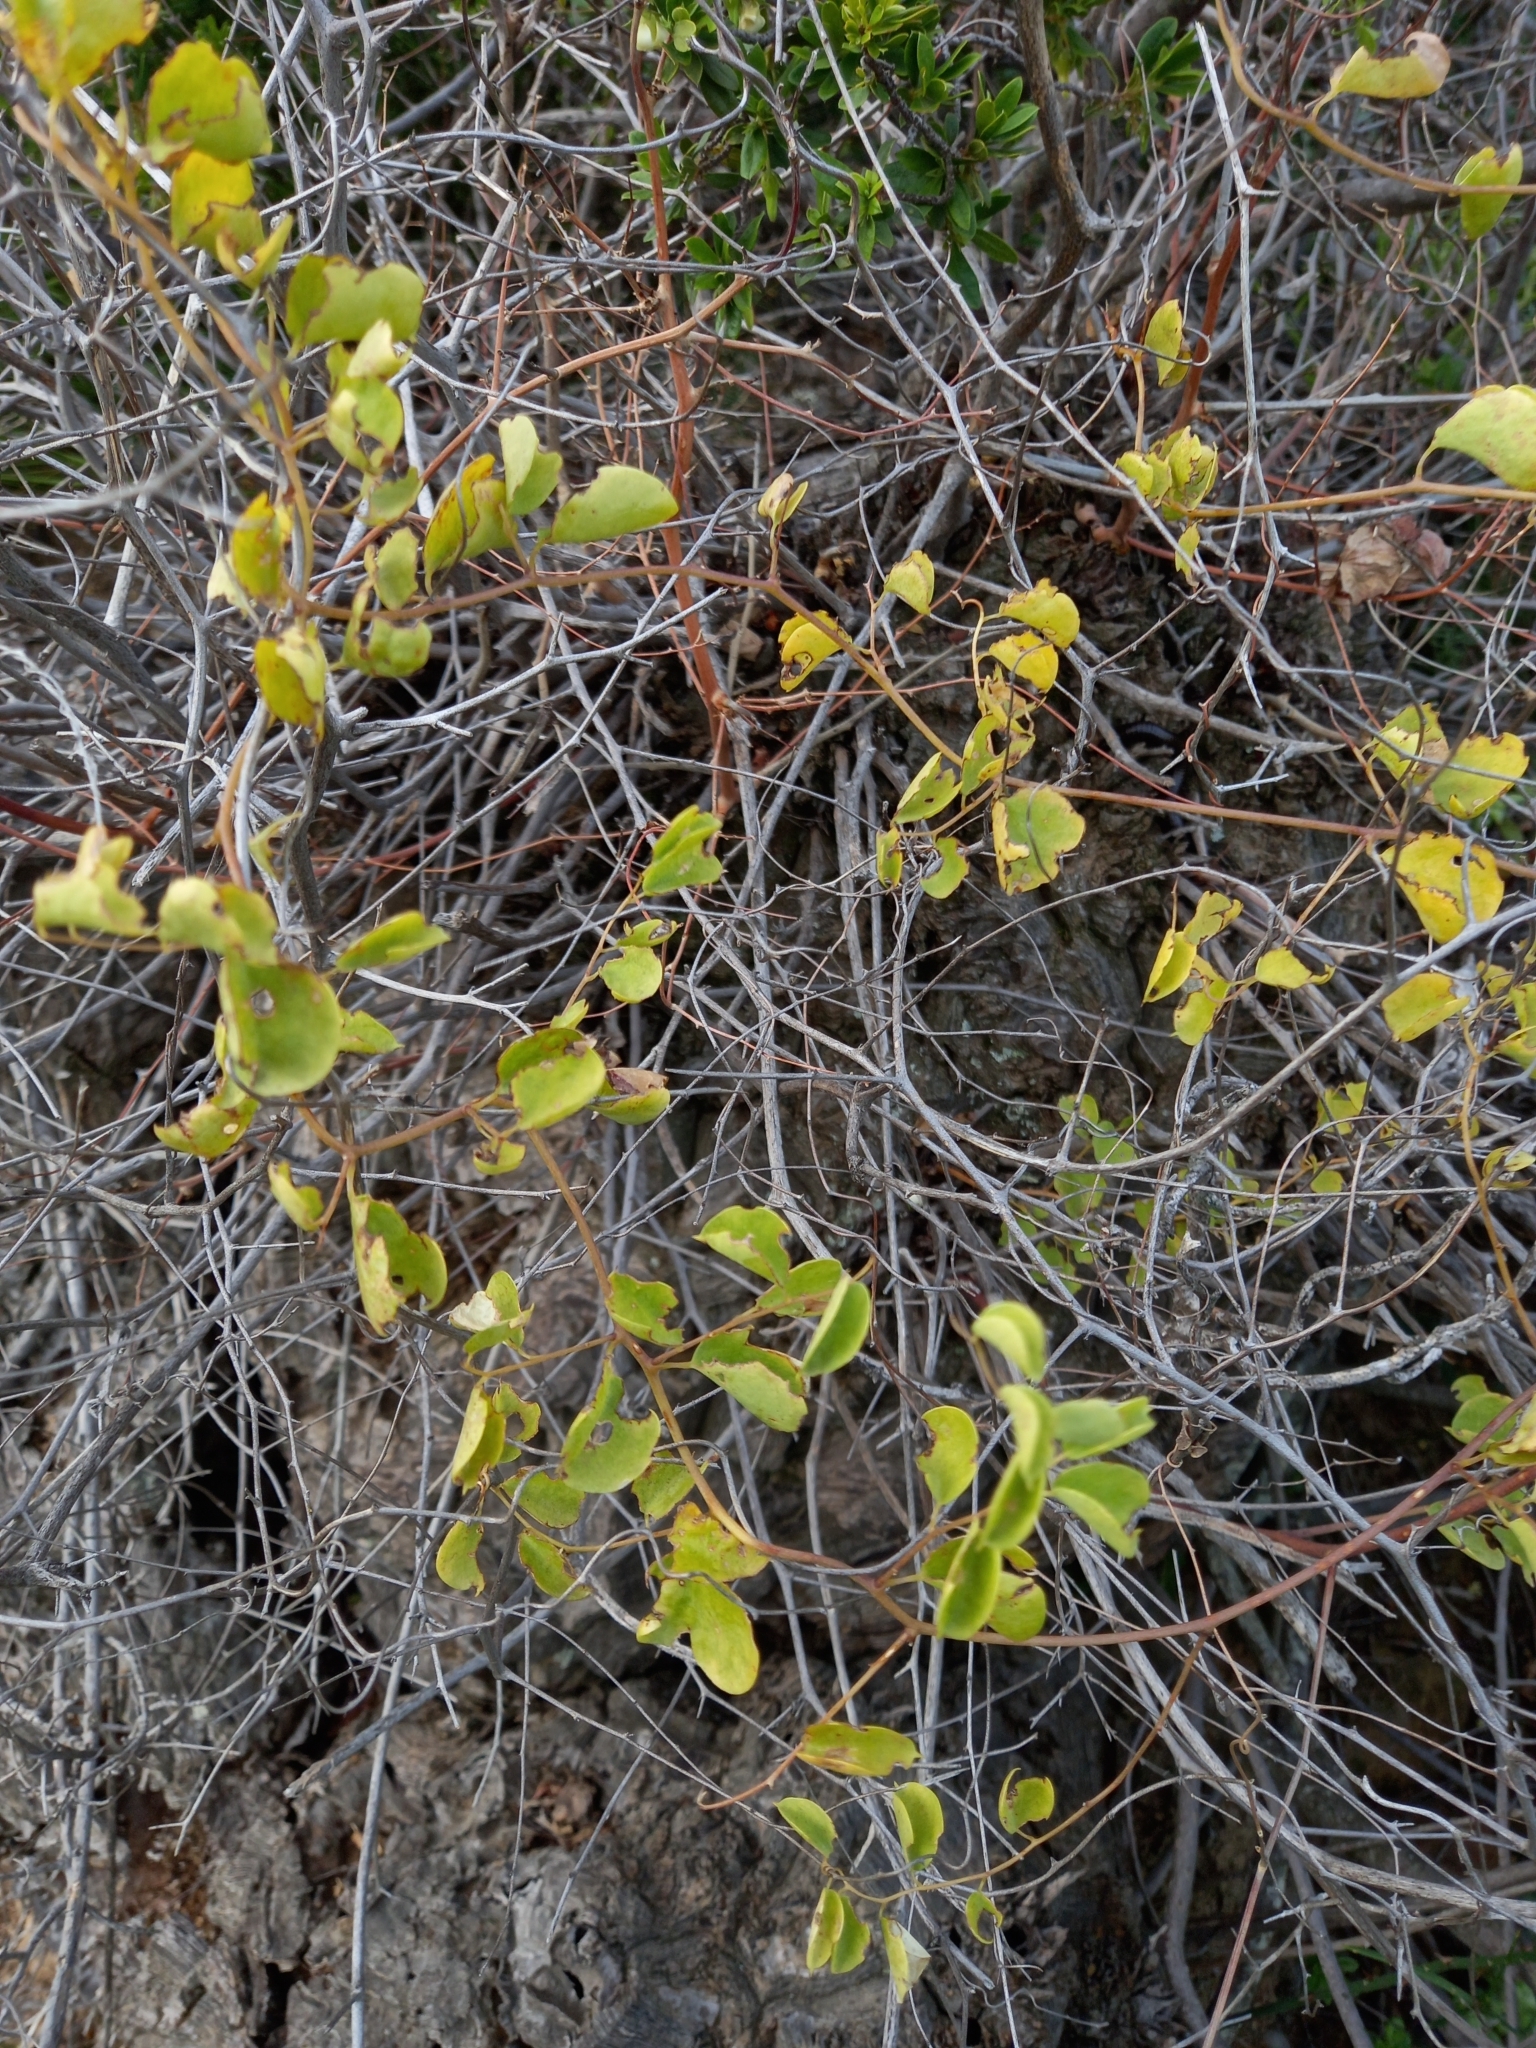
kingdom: Plantae
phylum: Tracheophyta
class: Liliopsida
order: Dioscoreales
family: Dioscoreaceae
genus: Dioscorea
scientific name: Dioscorea elephantipes
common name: Elephant's foot yam
